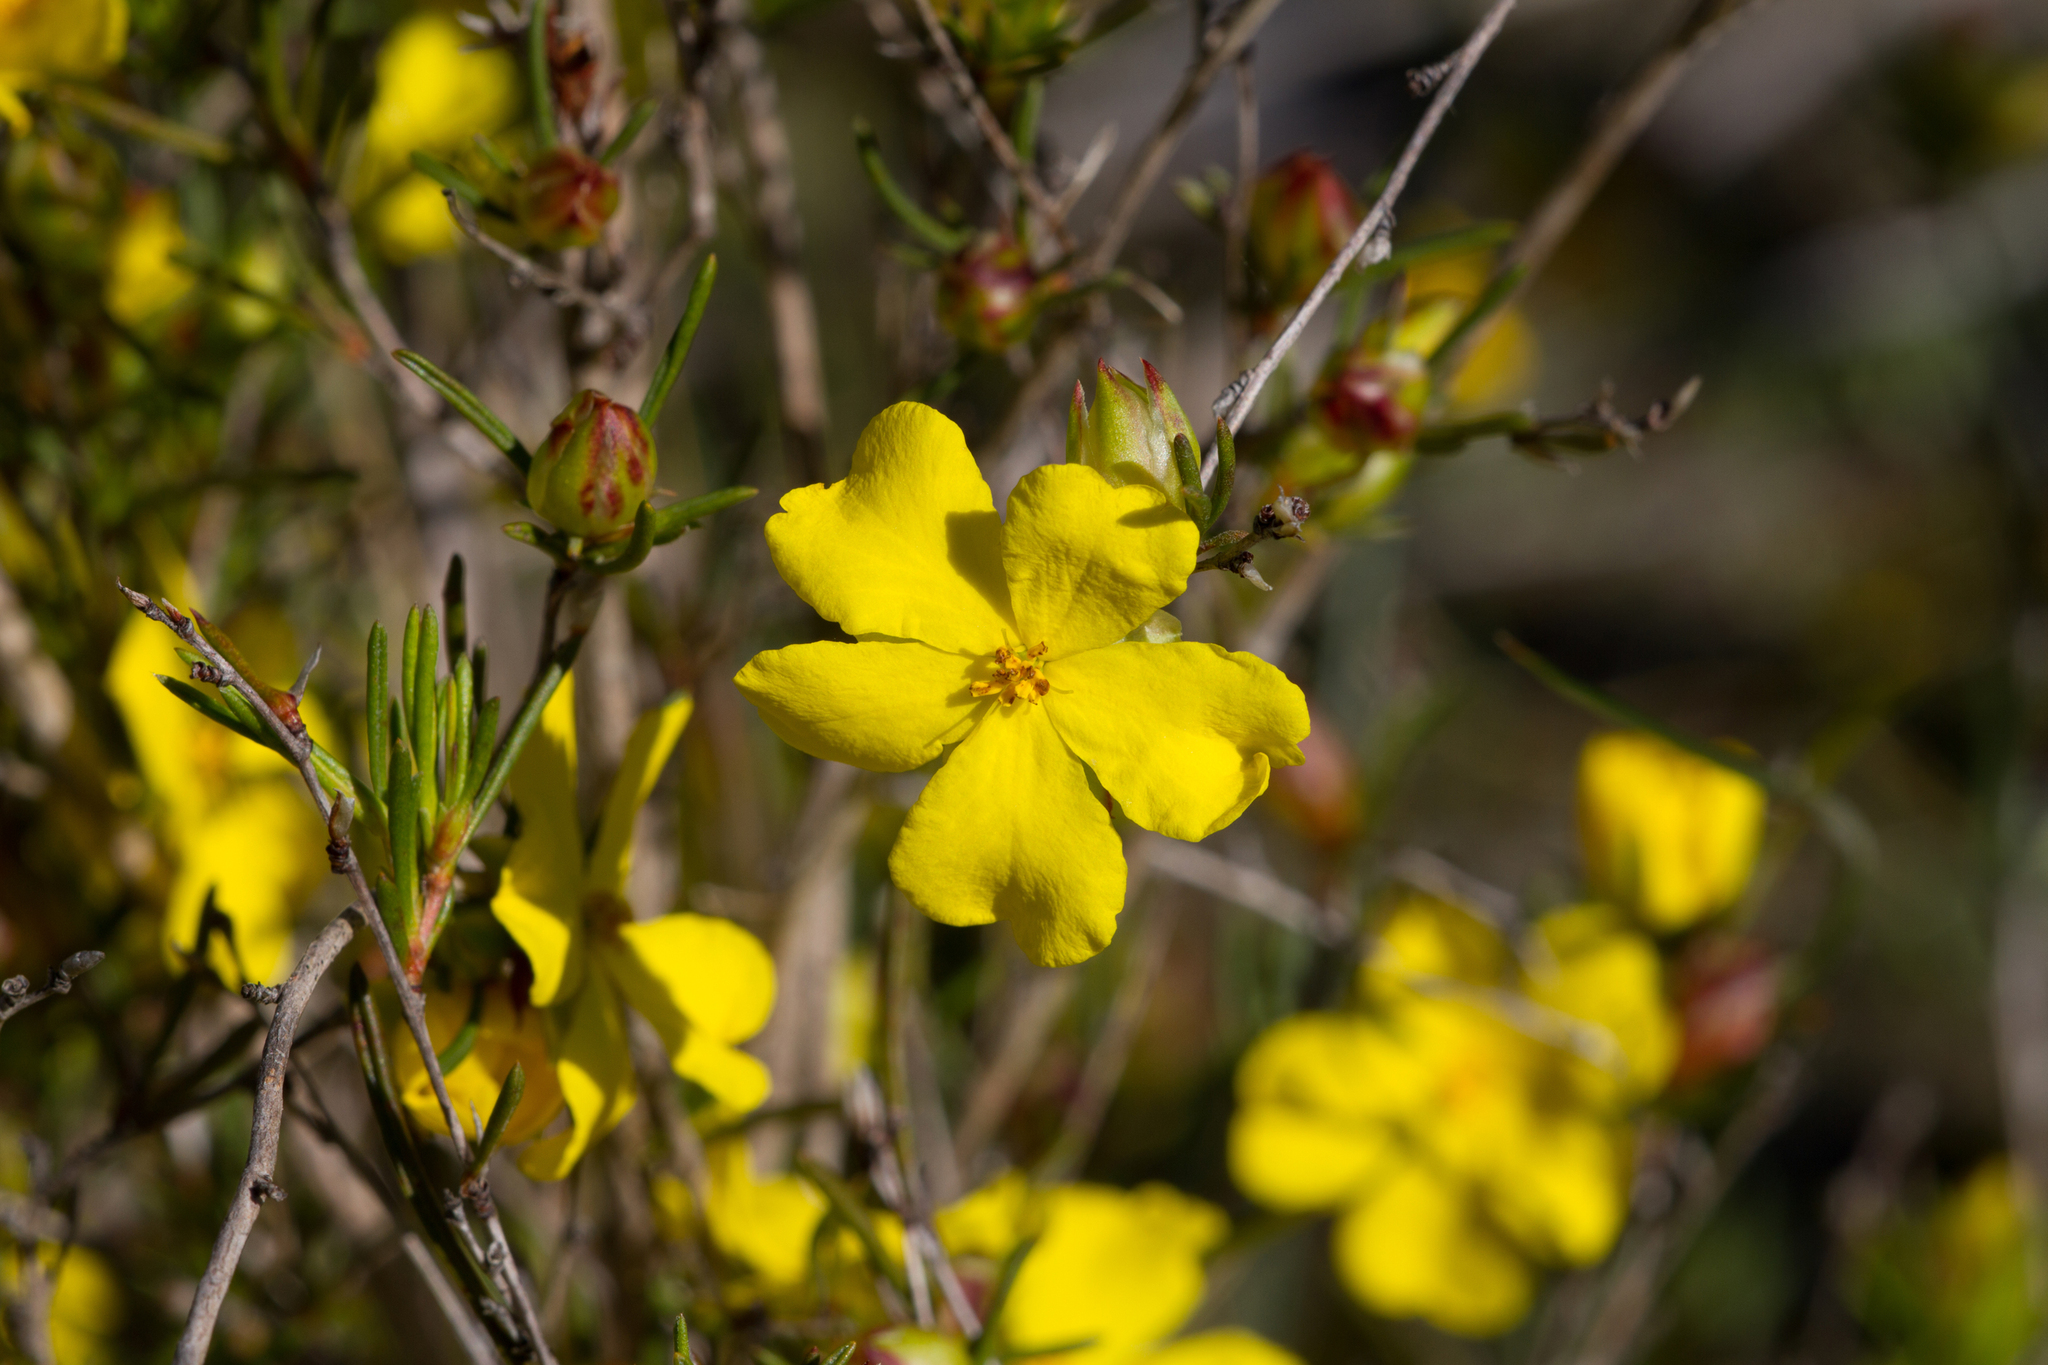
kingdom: Plantae
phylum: Tracheophyta
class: Magnoliopsida
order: Dilleniales
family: Dilleniaceae
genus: Hibbertia
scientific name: Hibbertia virgata
